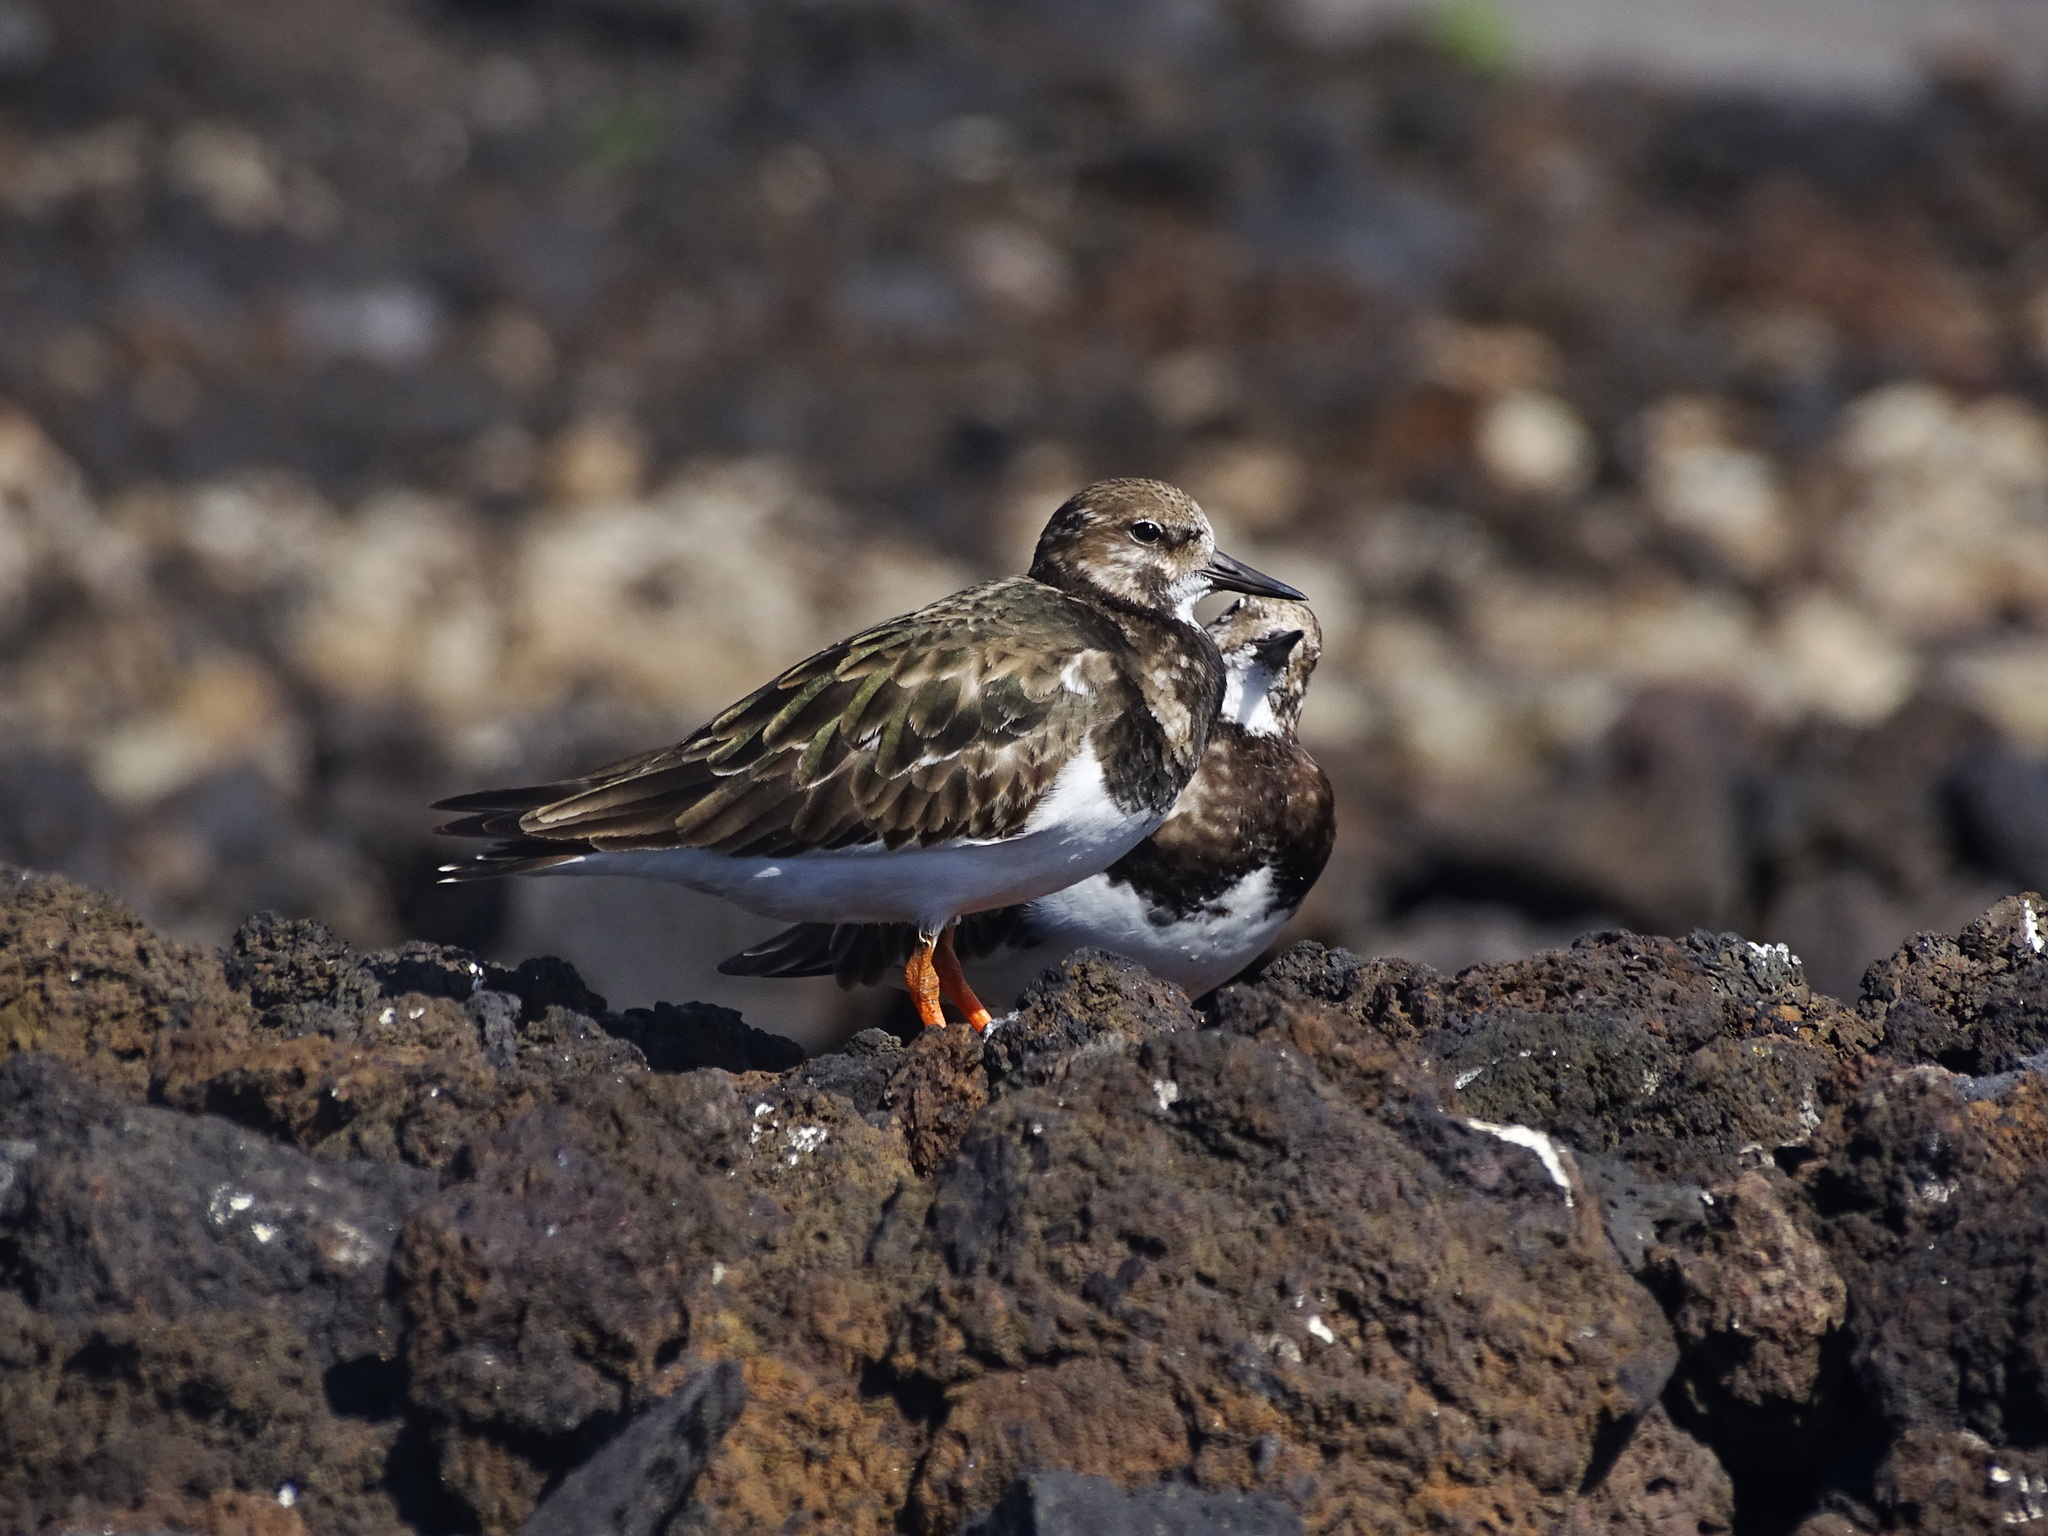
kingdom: Animalia
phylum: Chordata
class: Aves
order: Charadriiformes
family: Scolopacidae
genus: Arenaria
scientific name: Arenaria interpres
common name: Ruddy turnstone
